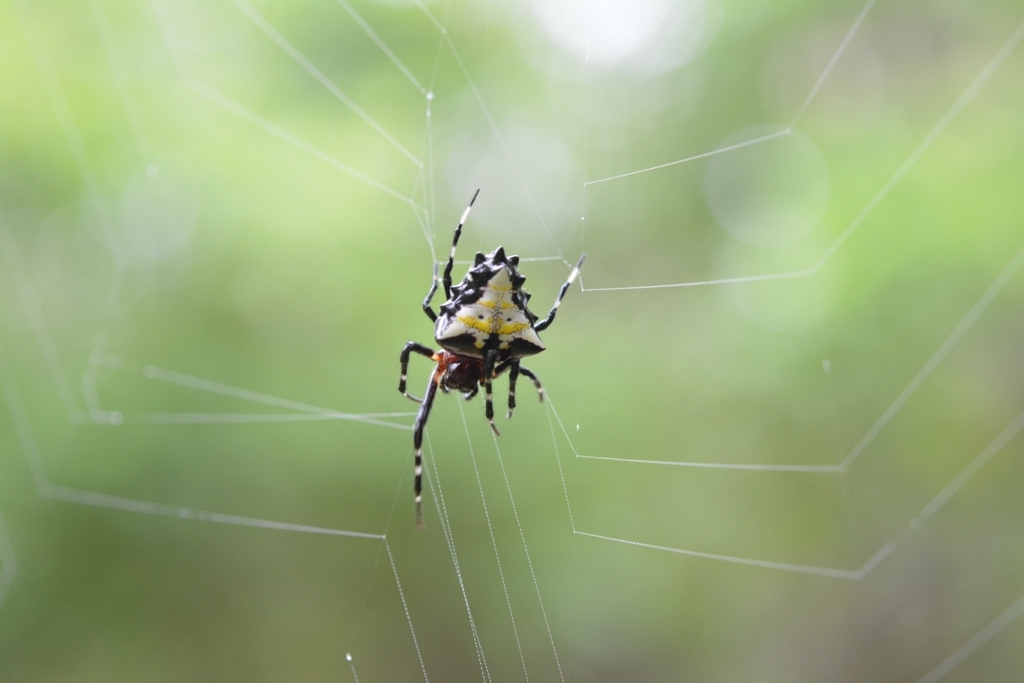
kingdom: Animalia
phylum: Arthropoda
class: Arachnida
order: Araneae
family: Araneidae
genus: Verrucosa
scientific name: Verrucosa arenata
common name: Orb weavers
